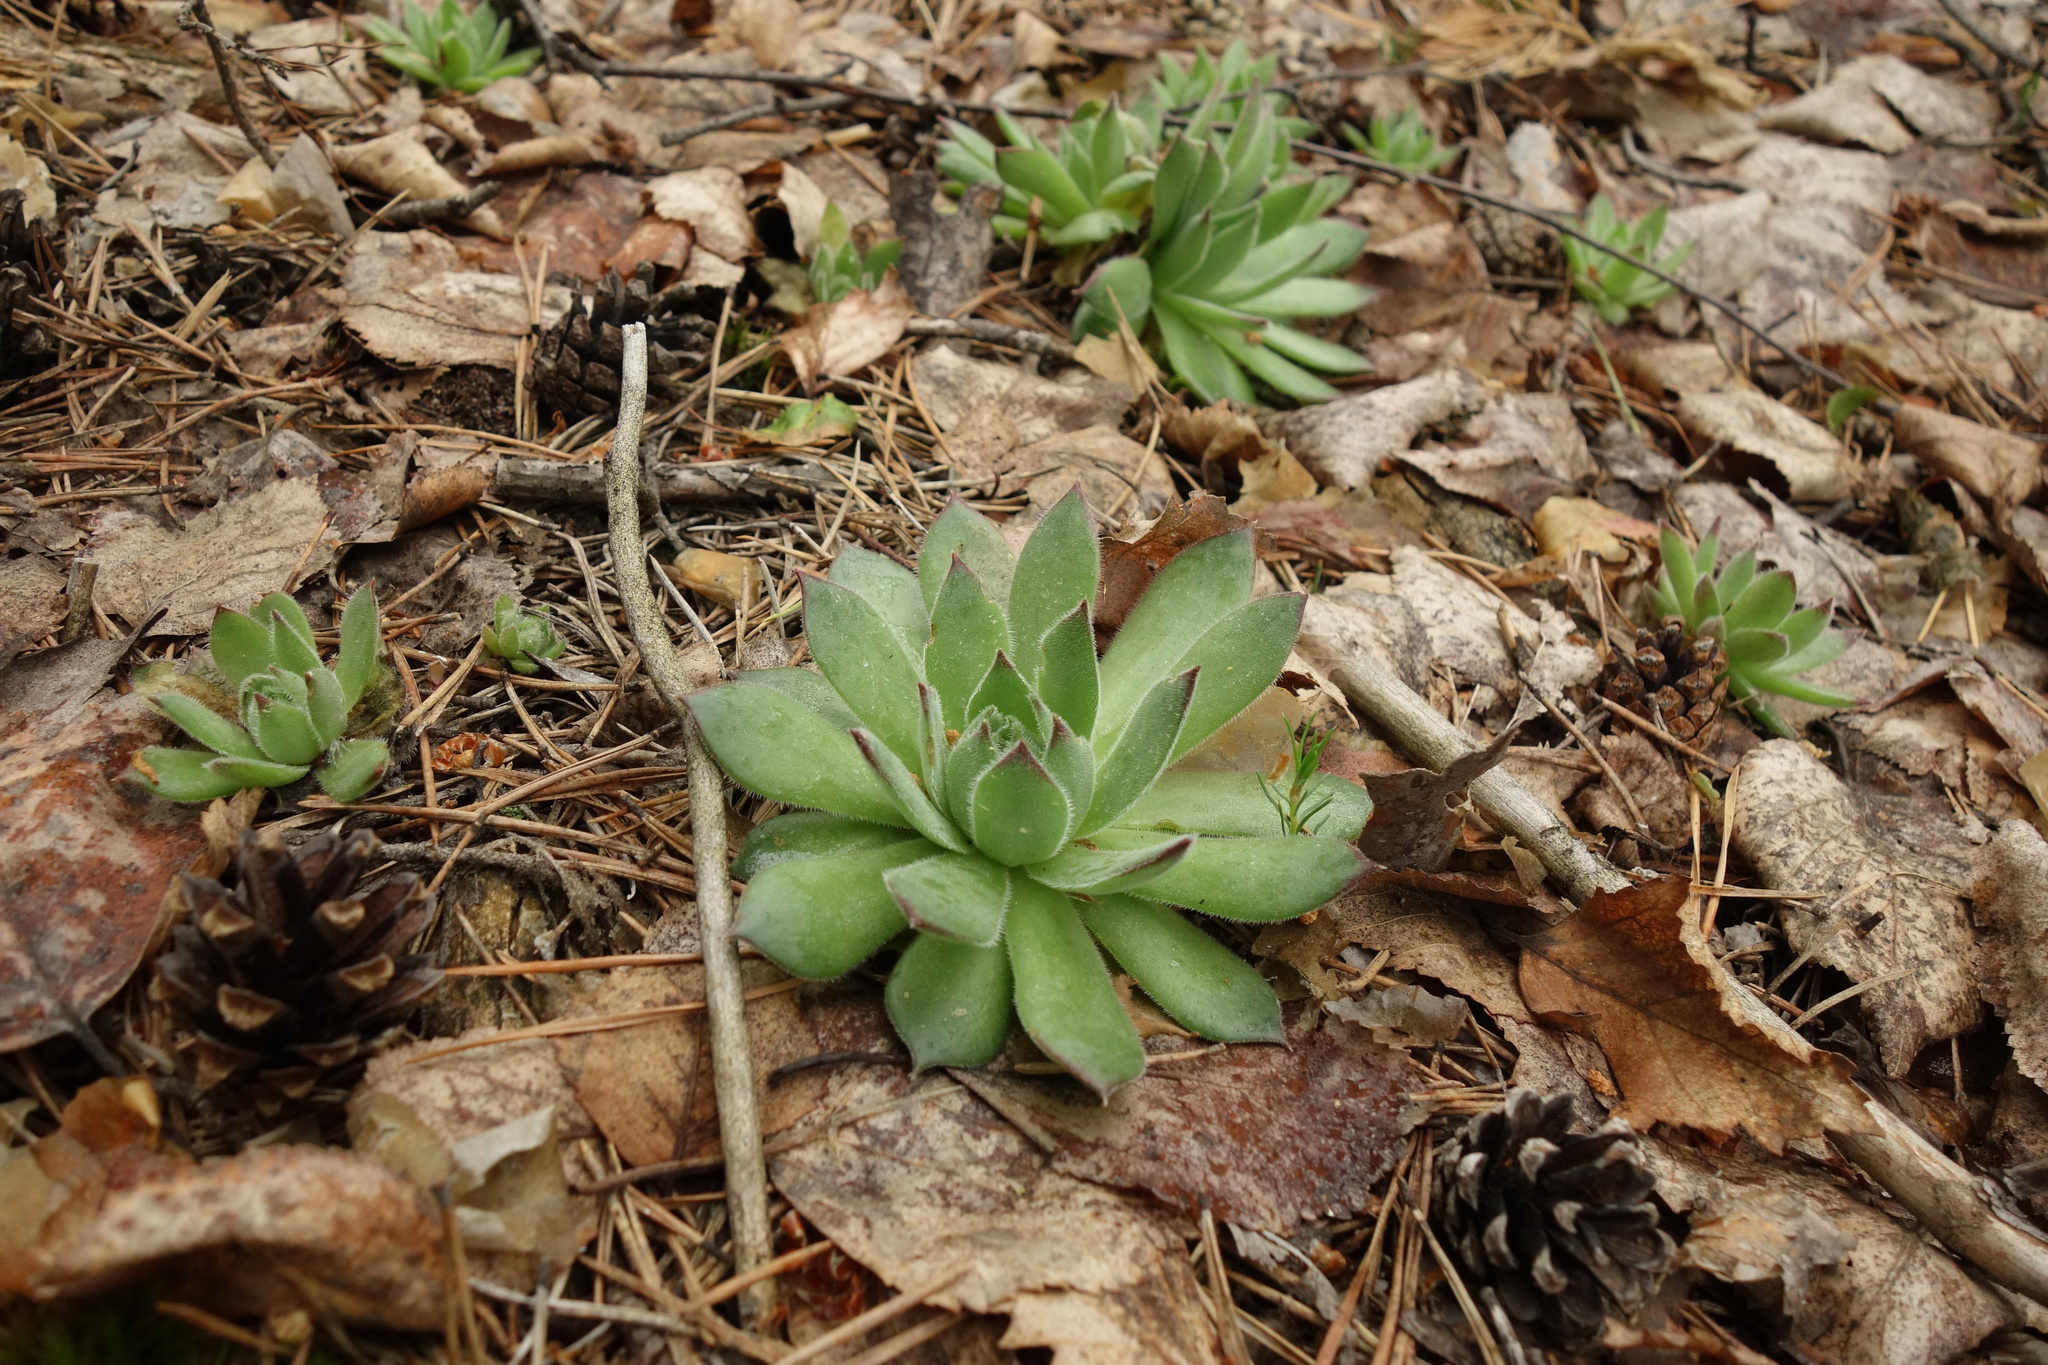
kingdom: Plantae
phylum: Tracheophyta
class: Magnoliopsida
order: Saxifragales
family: Crassulaceae
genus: Sempervivum
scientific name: Sempervivum ruthenicum
